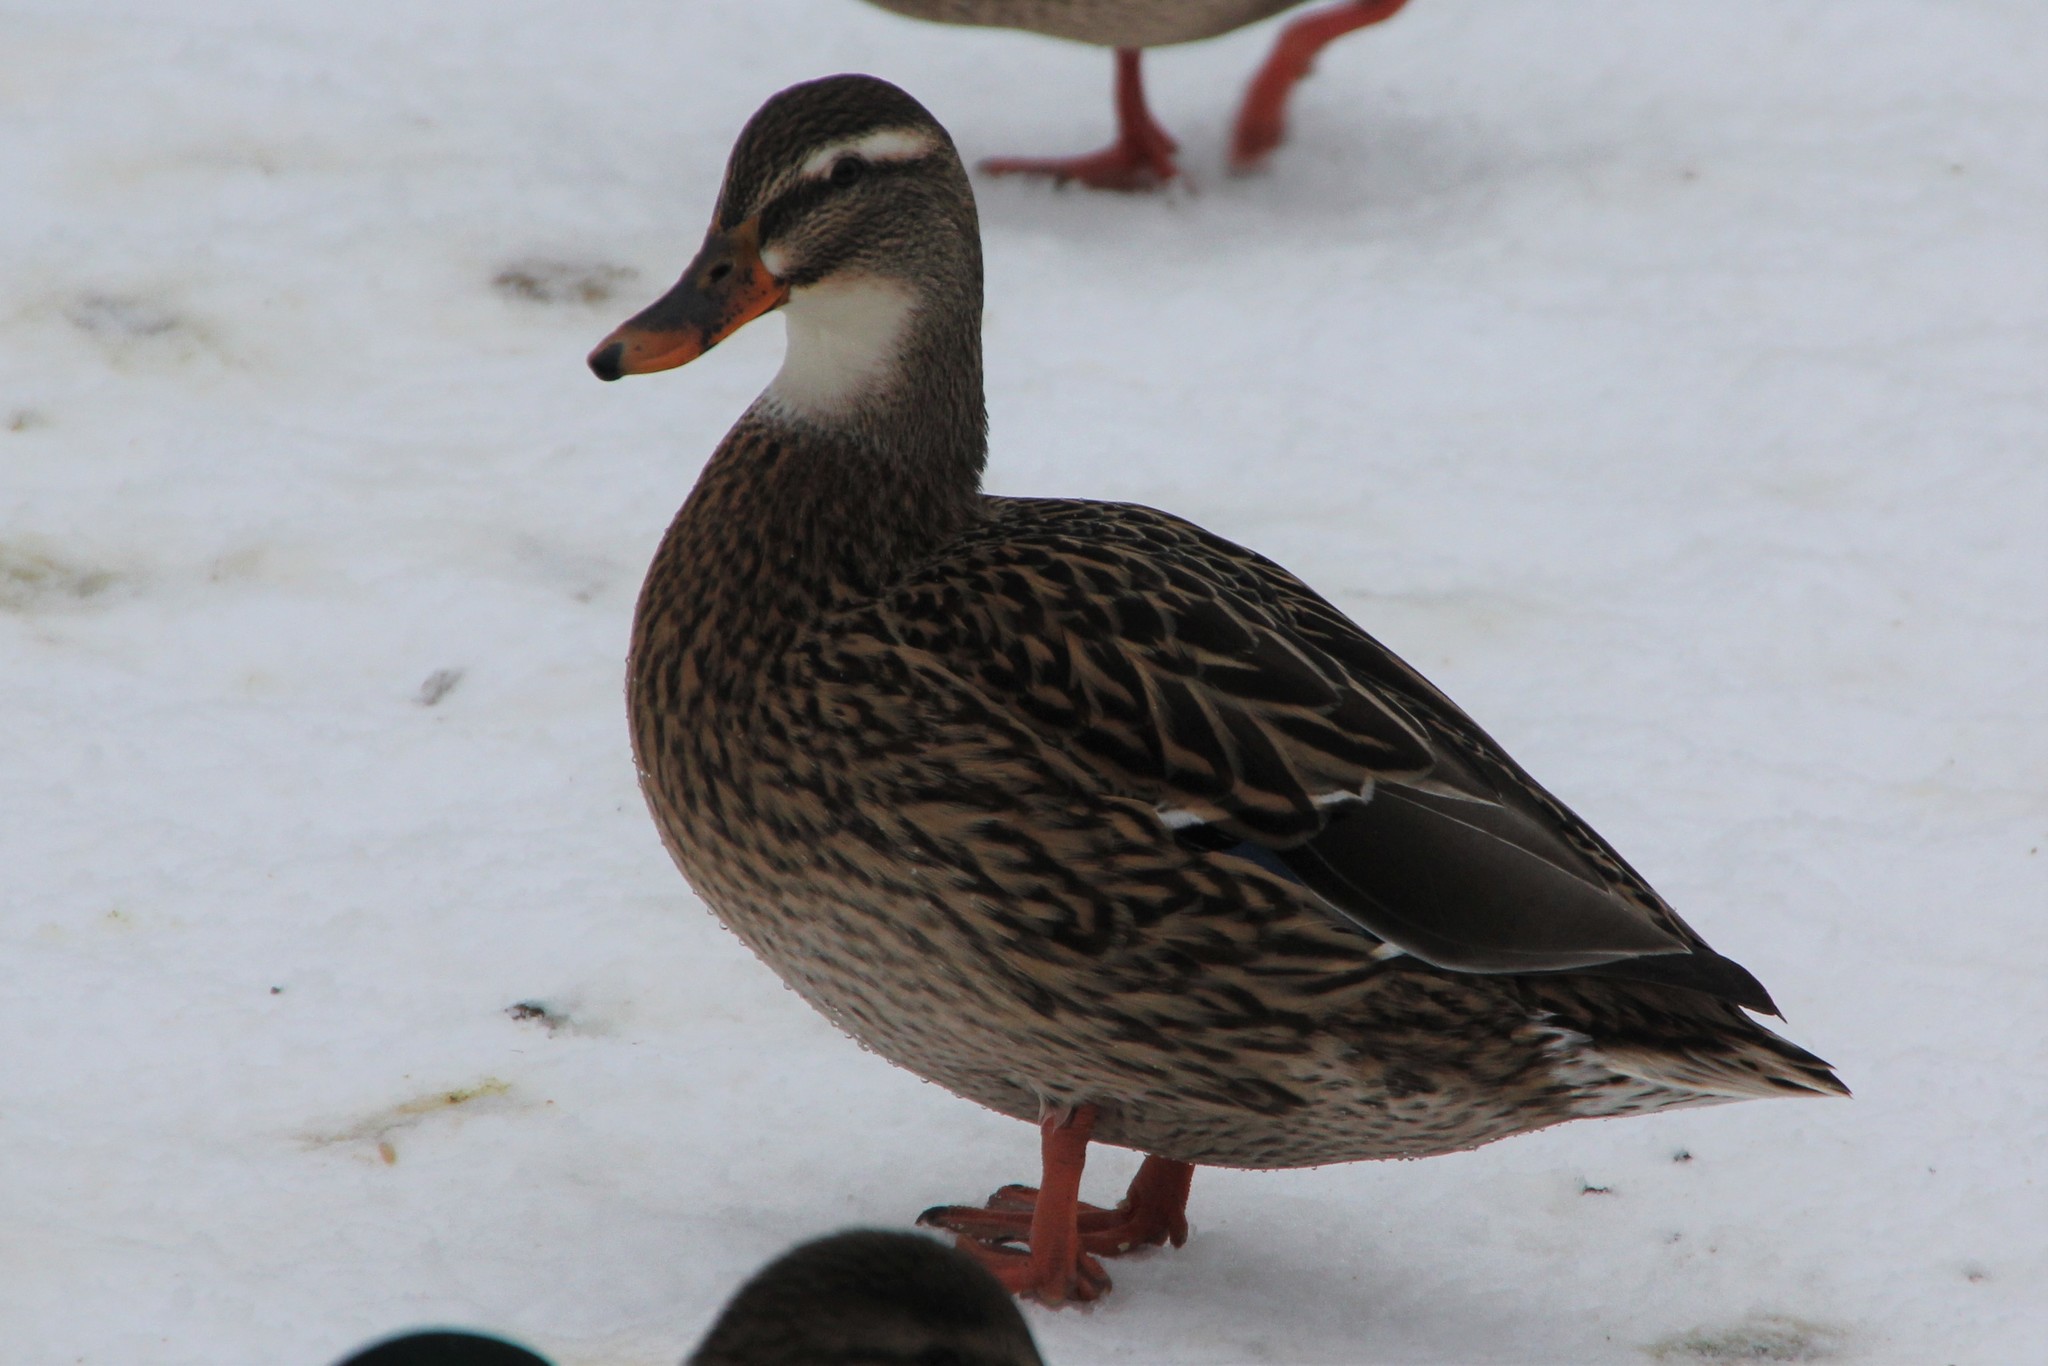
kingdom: Animalia
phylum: Chordata
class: Aves
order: Anseriformes
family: Anatidae
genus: Anas
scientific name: Anas platyrhynchos
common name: Mallard
